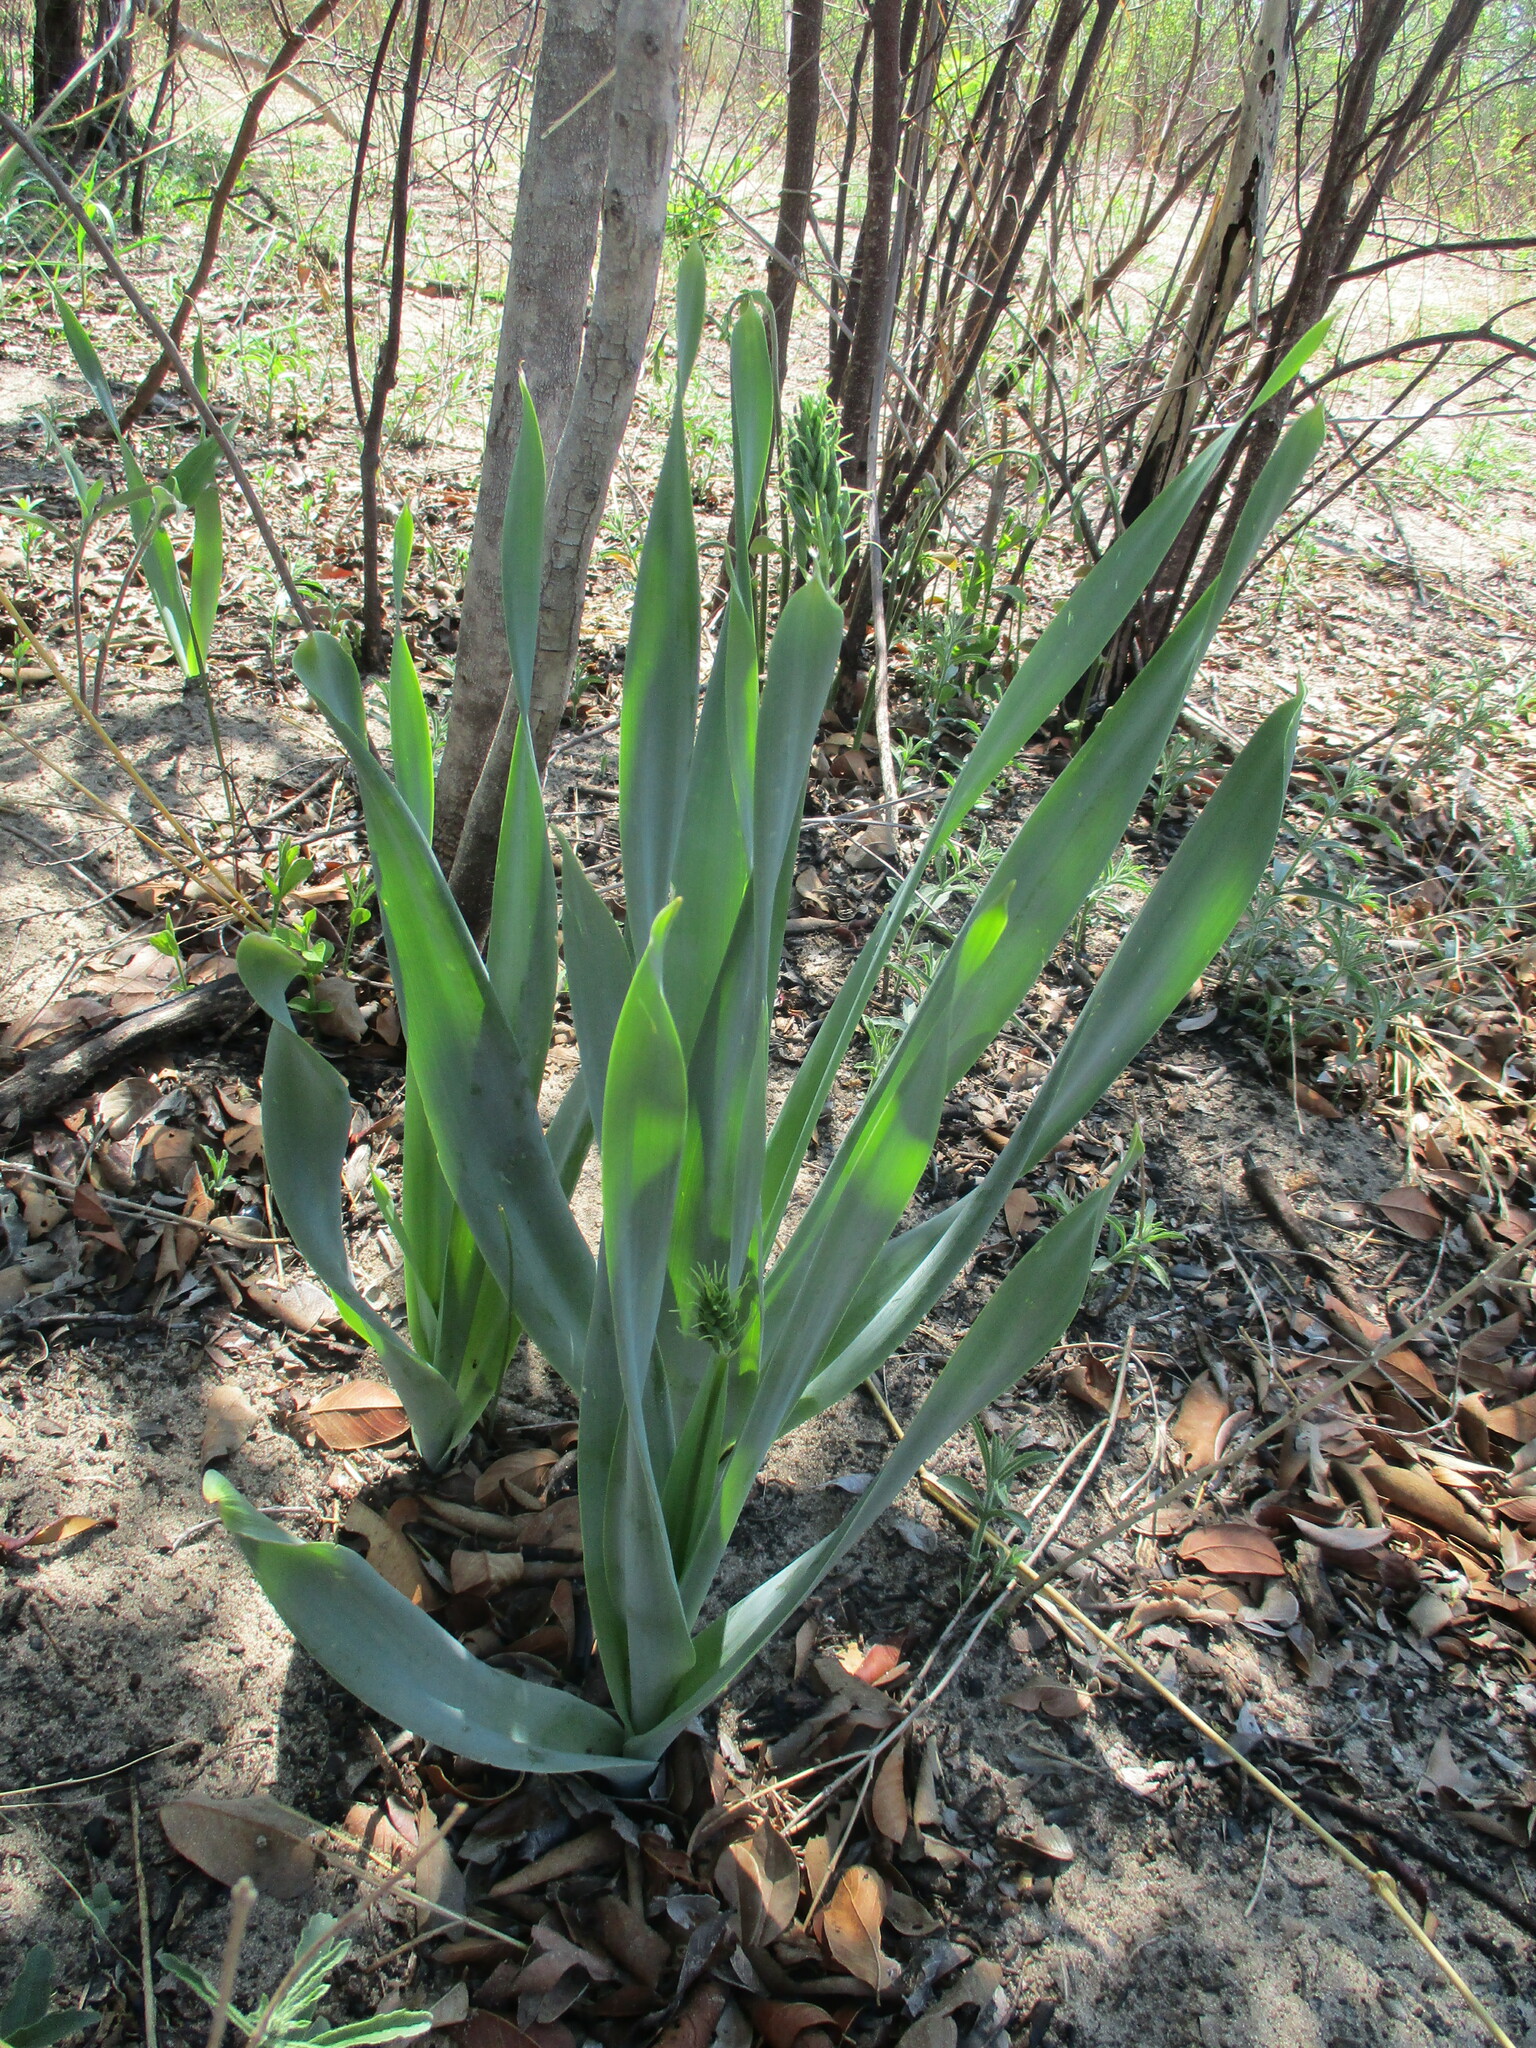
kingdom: Plantae
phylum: Tracheophyta
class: Liliopsida
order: Asparagales
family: Asparagaceae
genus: Dipcadi
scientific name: Dipcadi glaucum
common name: Wild onion
